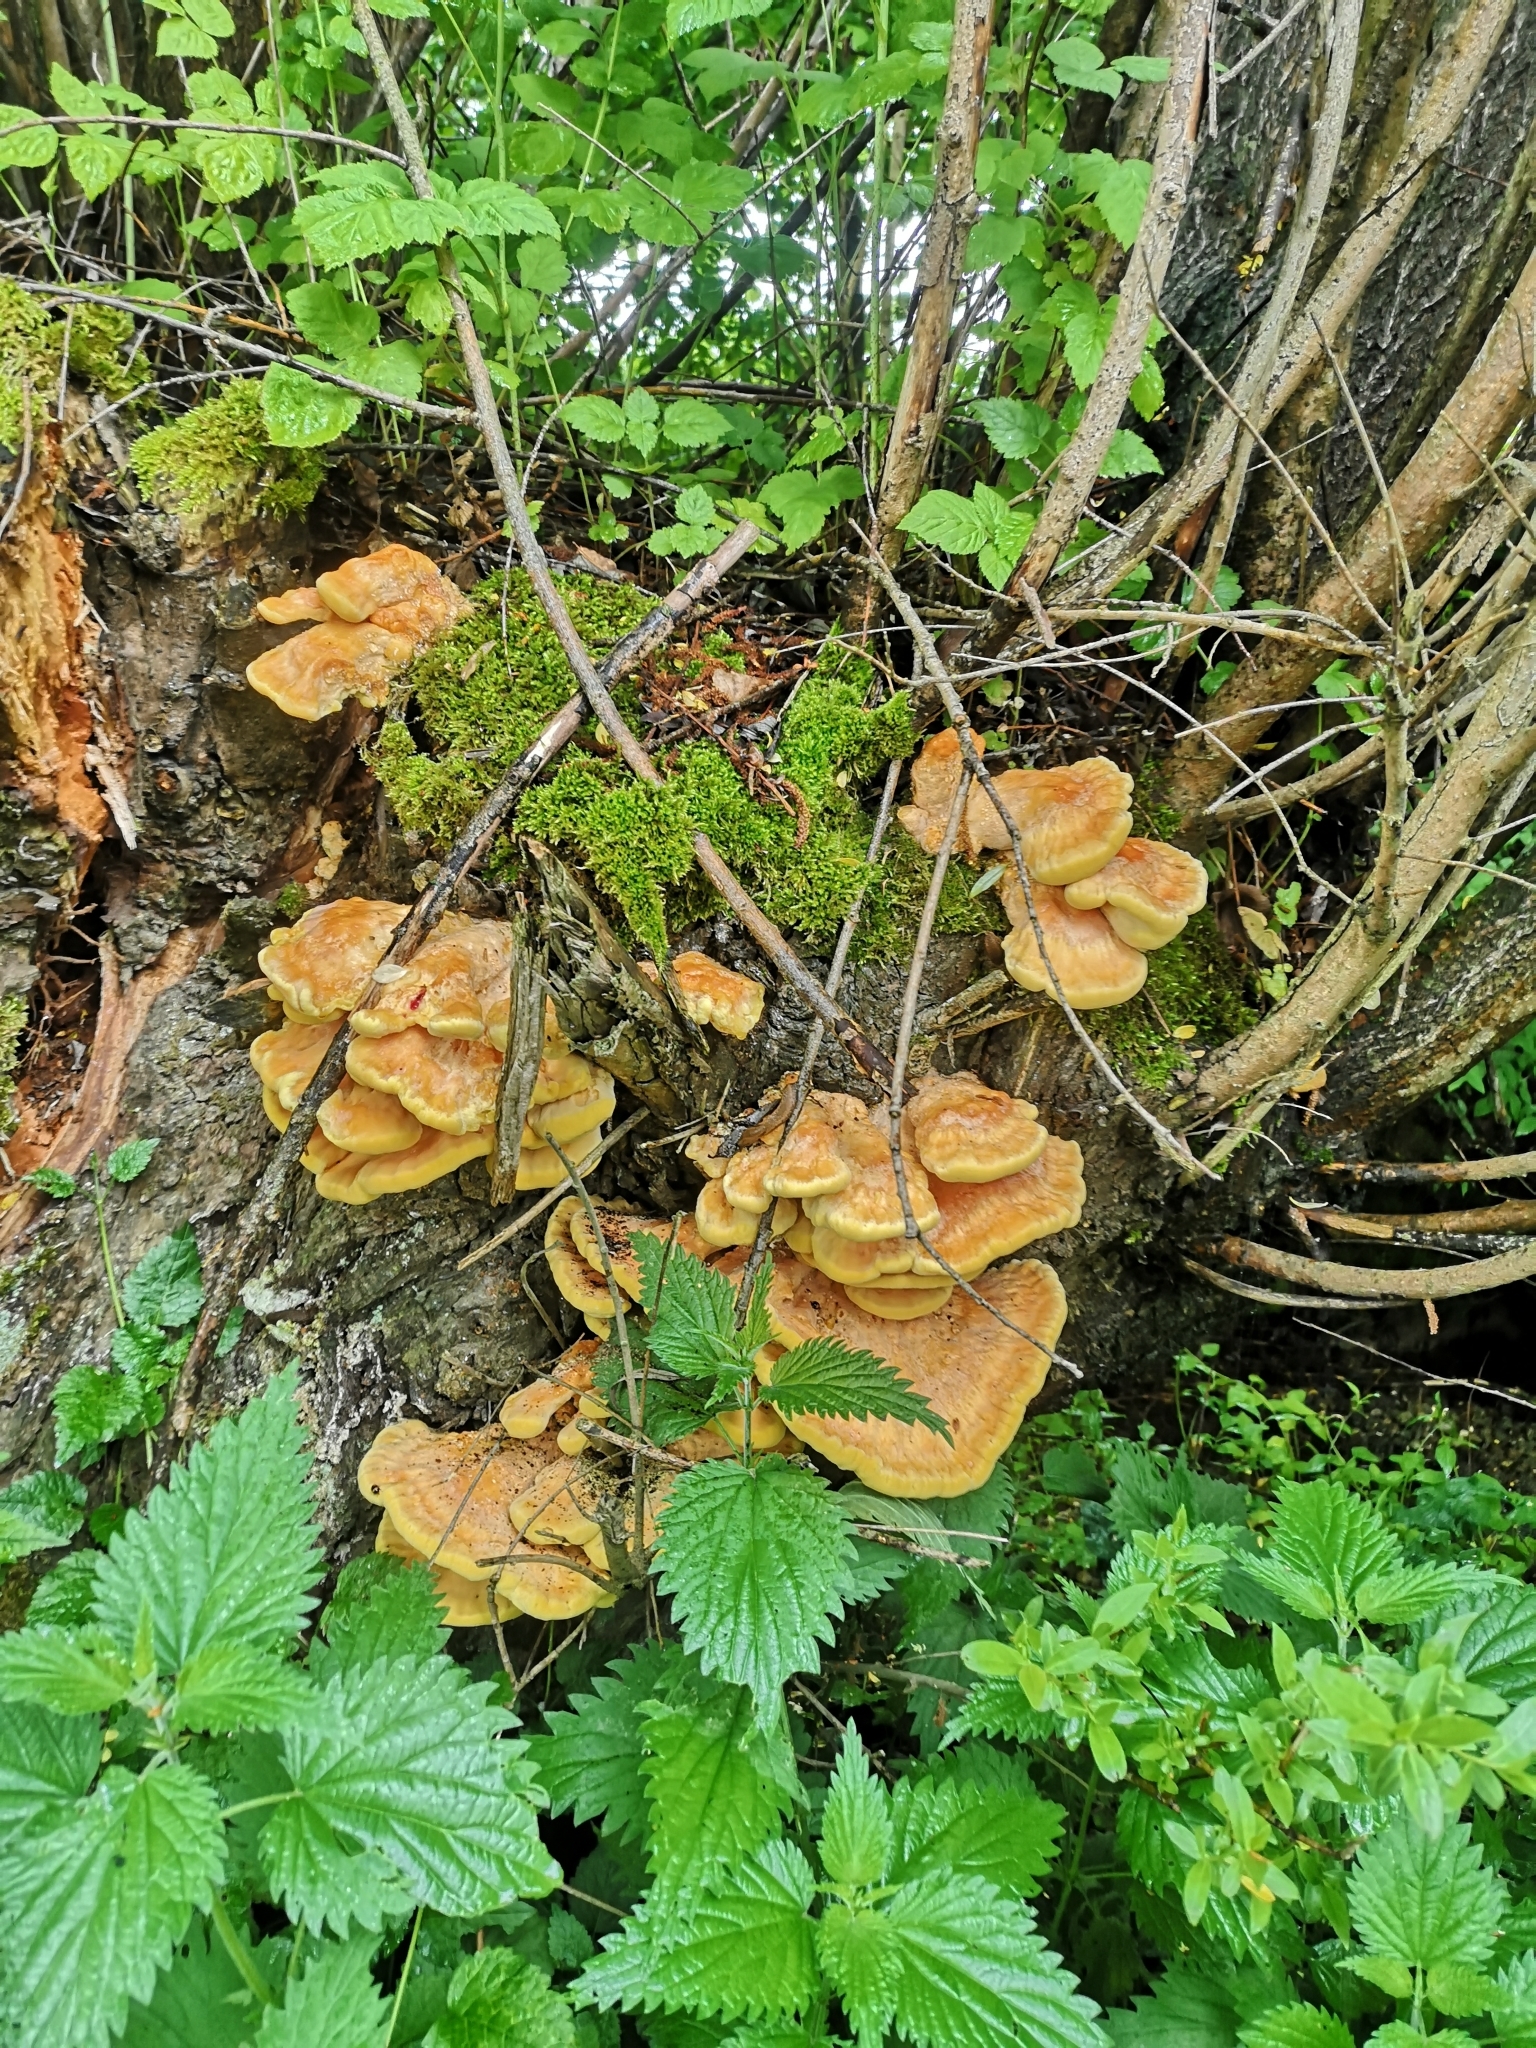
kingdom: Fungi
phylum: Basidiomycota
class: Agaricomycetes
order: Polyporales
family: Laetiporaceae
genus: Laetiporus
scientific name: Laetiporus sulphureus
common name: Chicken of the woods
